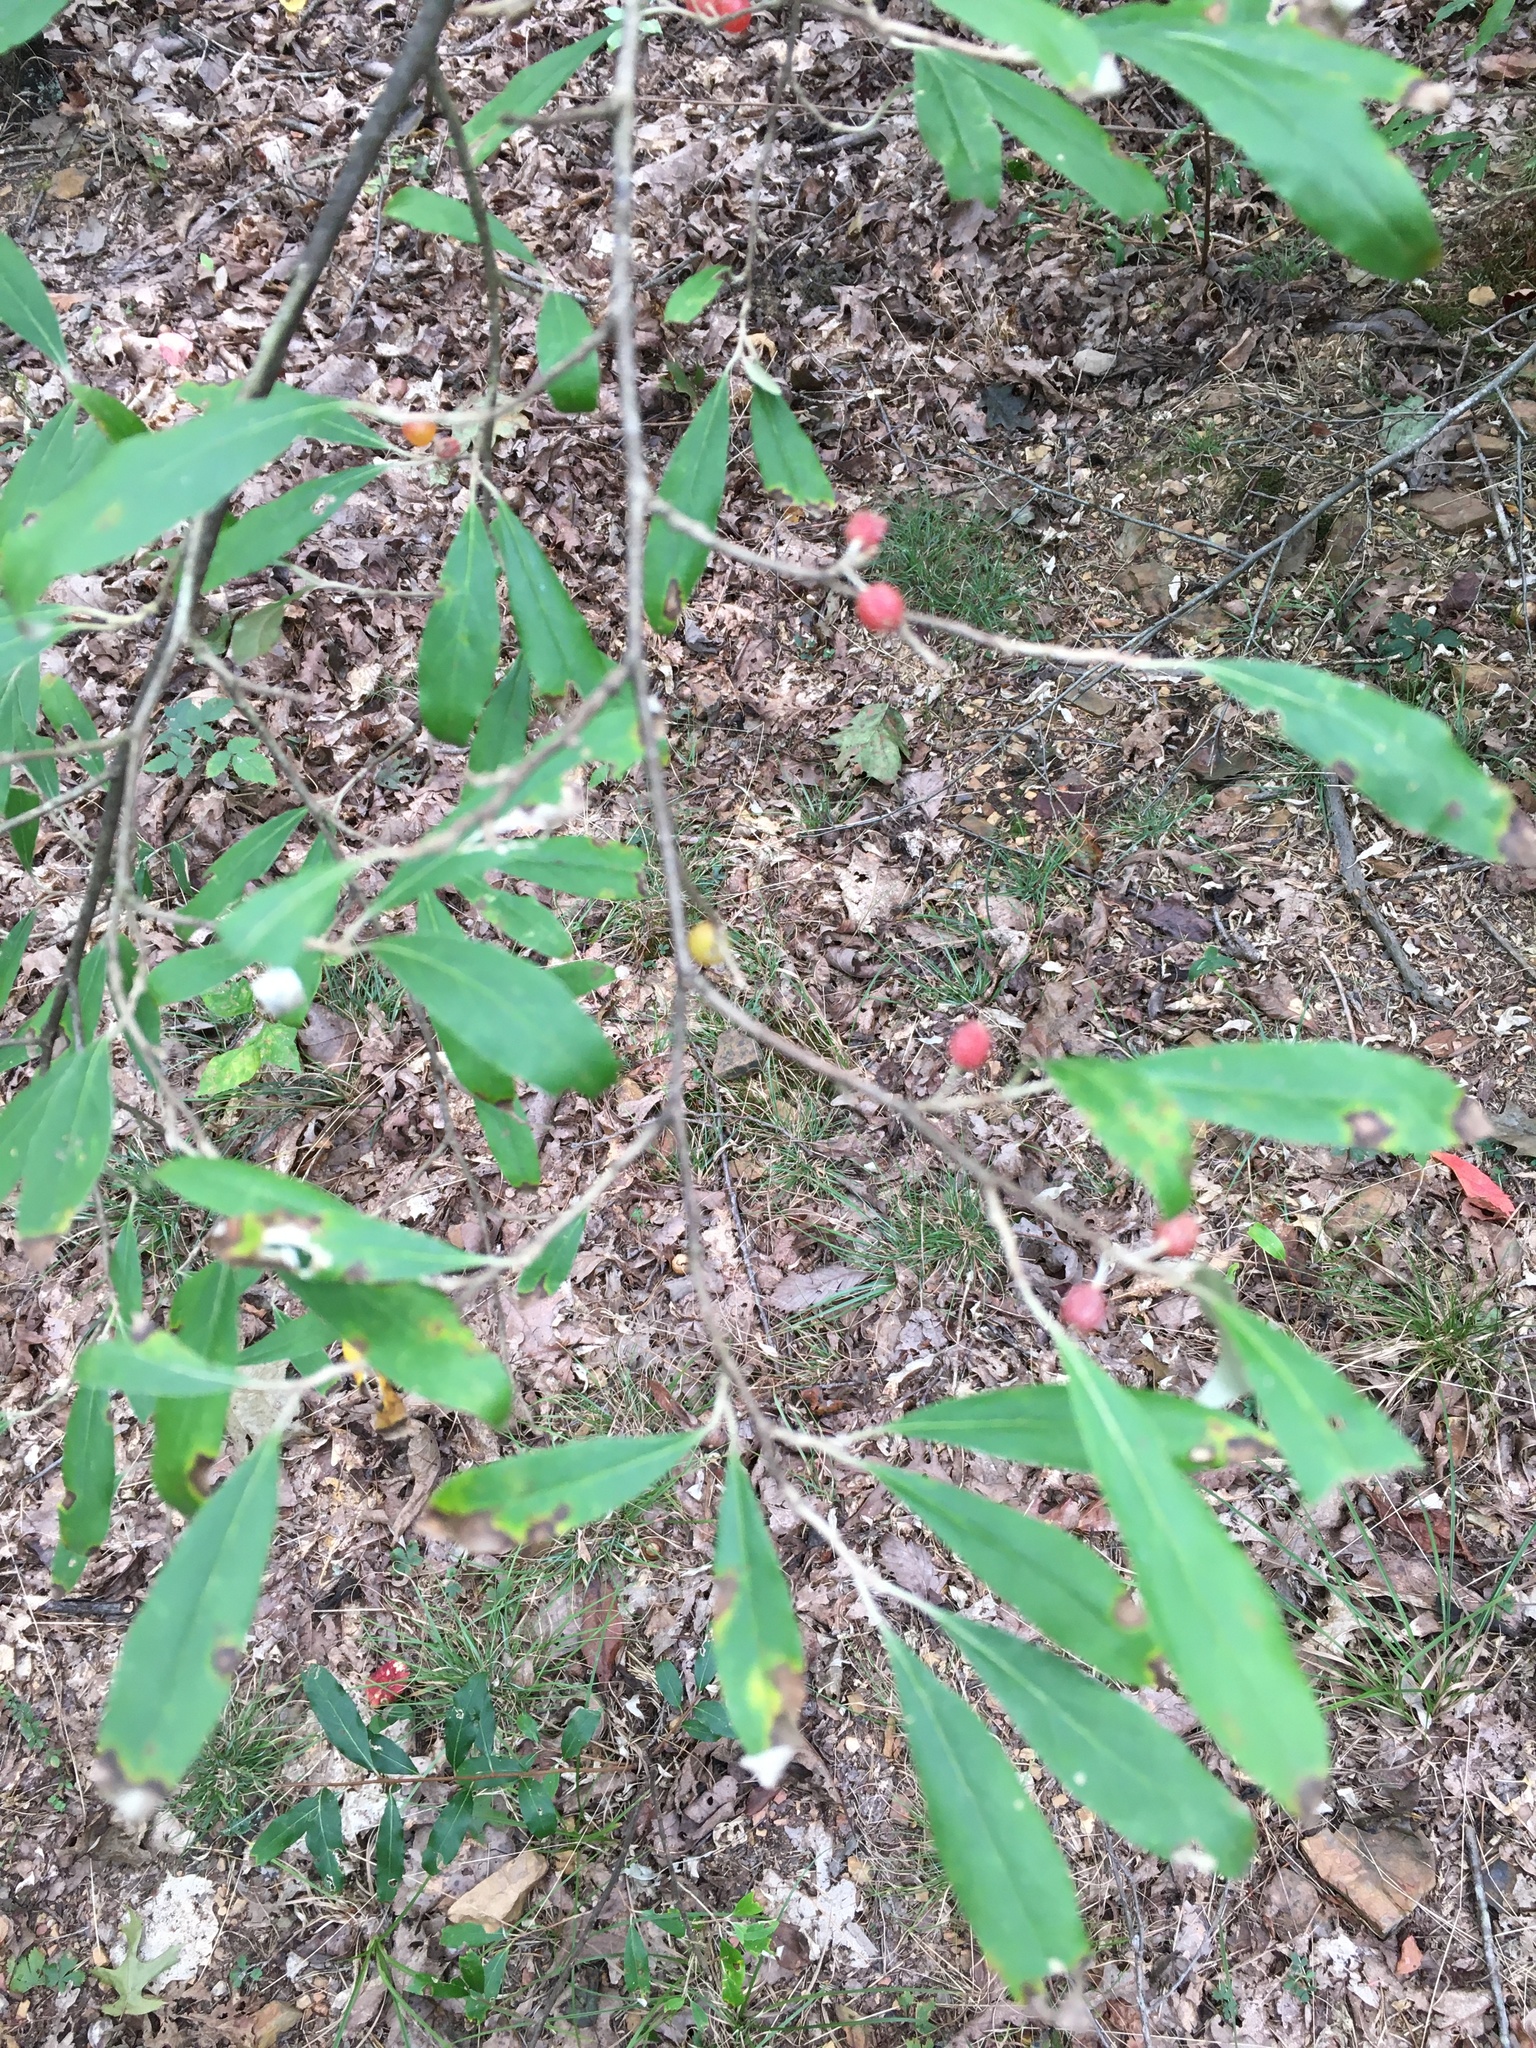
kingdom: Plantae
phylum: Tracheophyta
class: Magnoliopsida
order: Rosales
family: Elaeagnaceae
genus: Elaeagnus
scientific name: Elaeagnus umbellata
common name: Autumn olive
